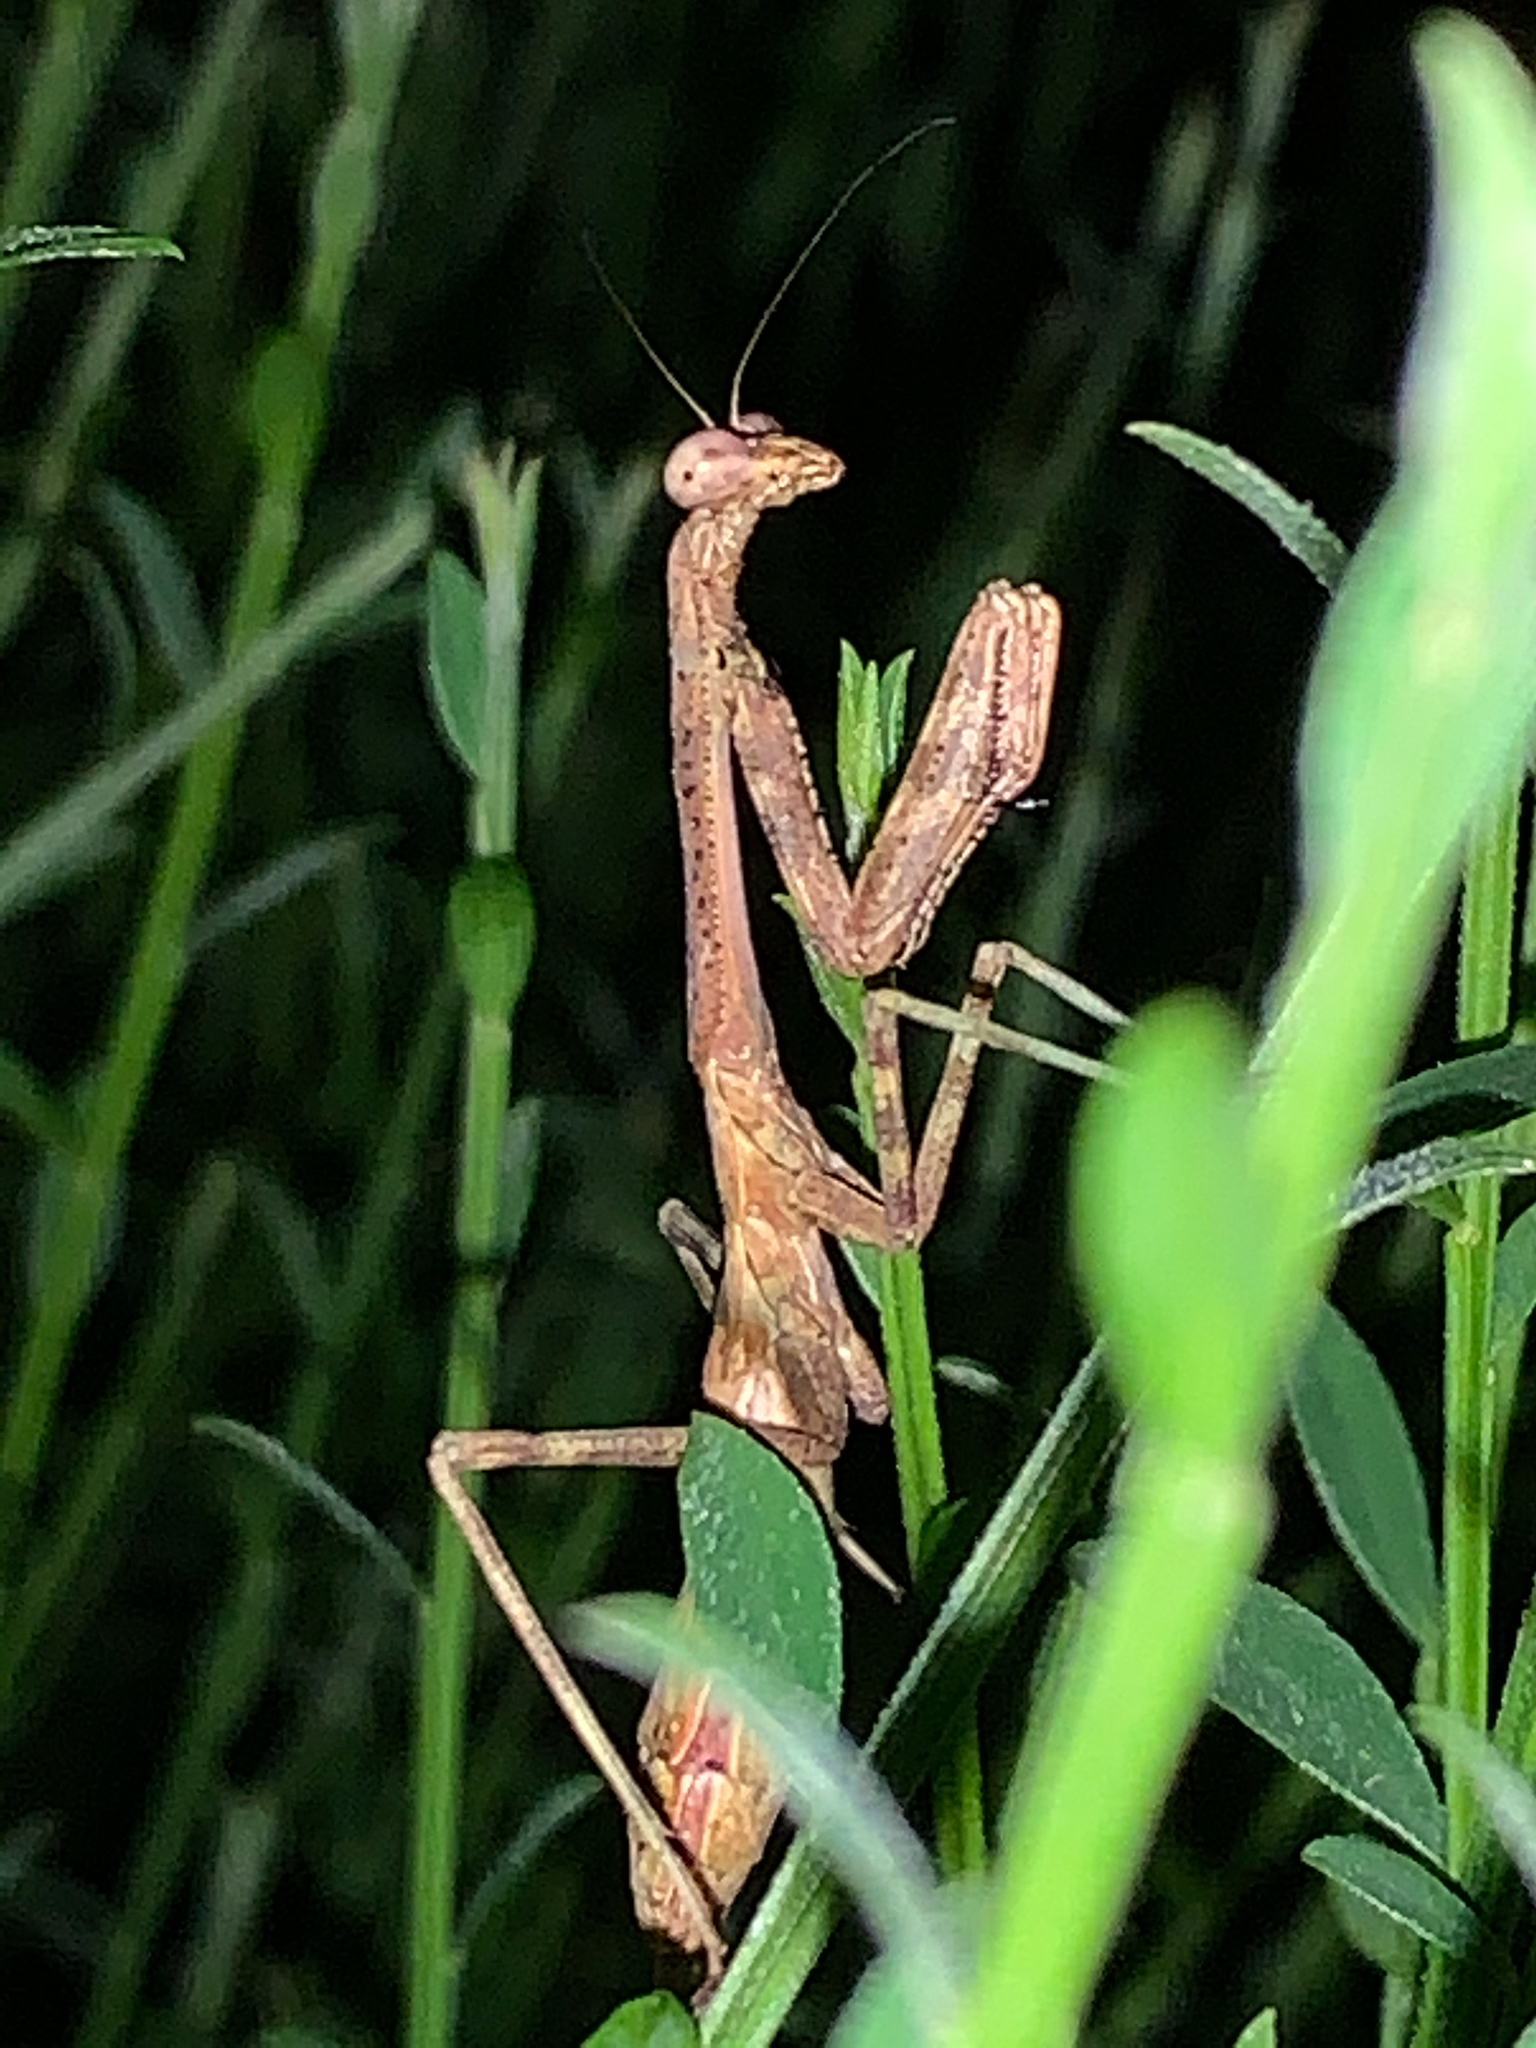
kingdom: Animalia
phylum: Arthropoda
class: Insecta
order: Mantodea
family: Mantidae
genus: Stagmomantis
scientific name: Stagmomantis carolina
